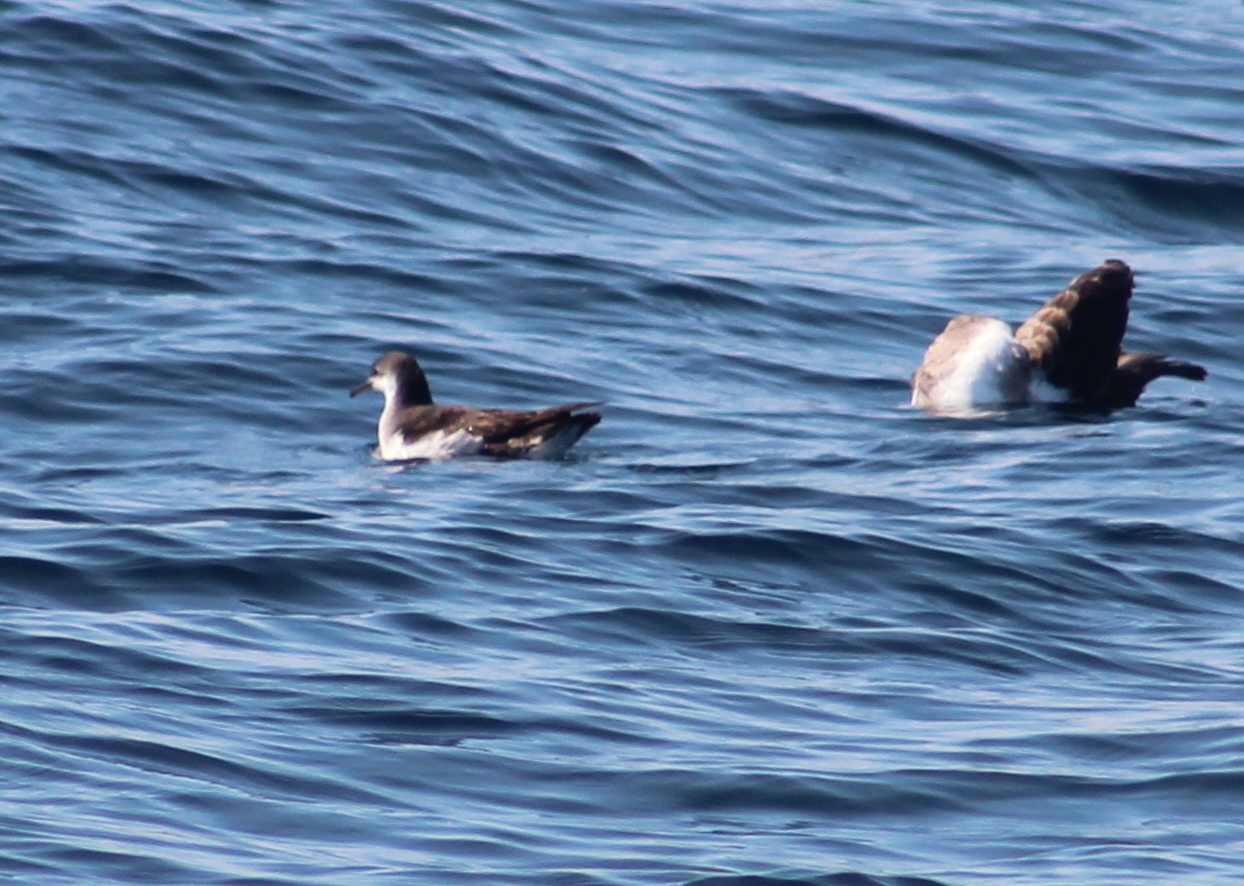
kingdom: Animalia
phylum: Chordata
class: Aves
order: Procellariiformes
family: Procellariidae
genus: Puffinus
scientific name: Puffinus puffinus
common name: Manx shearwater
